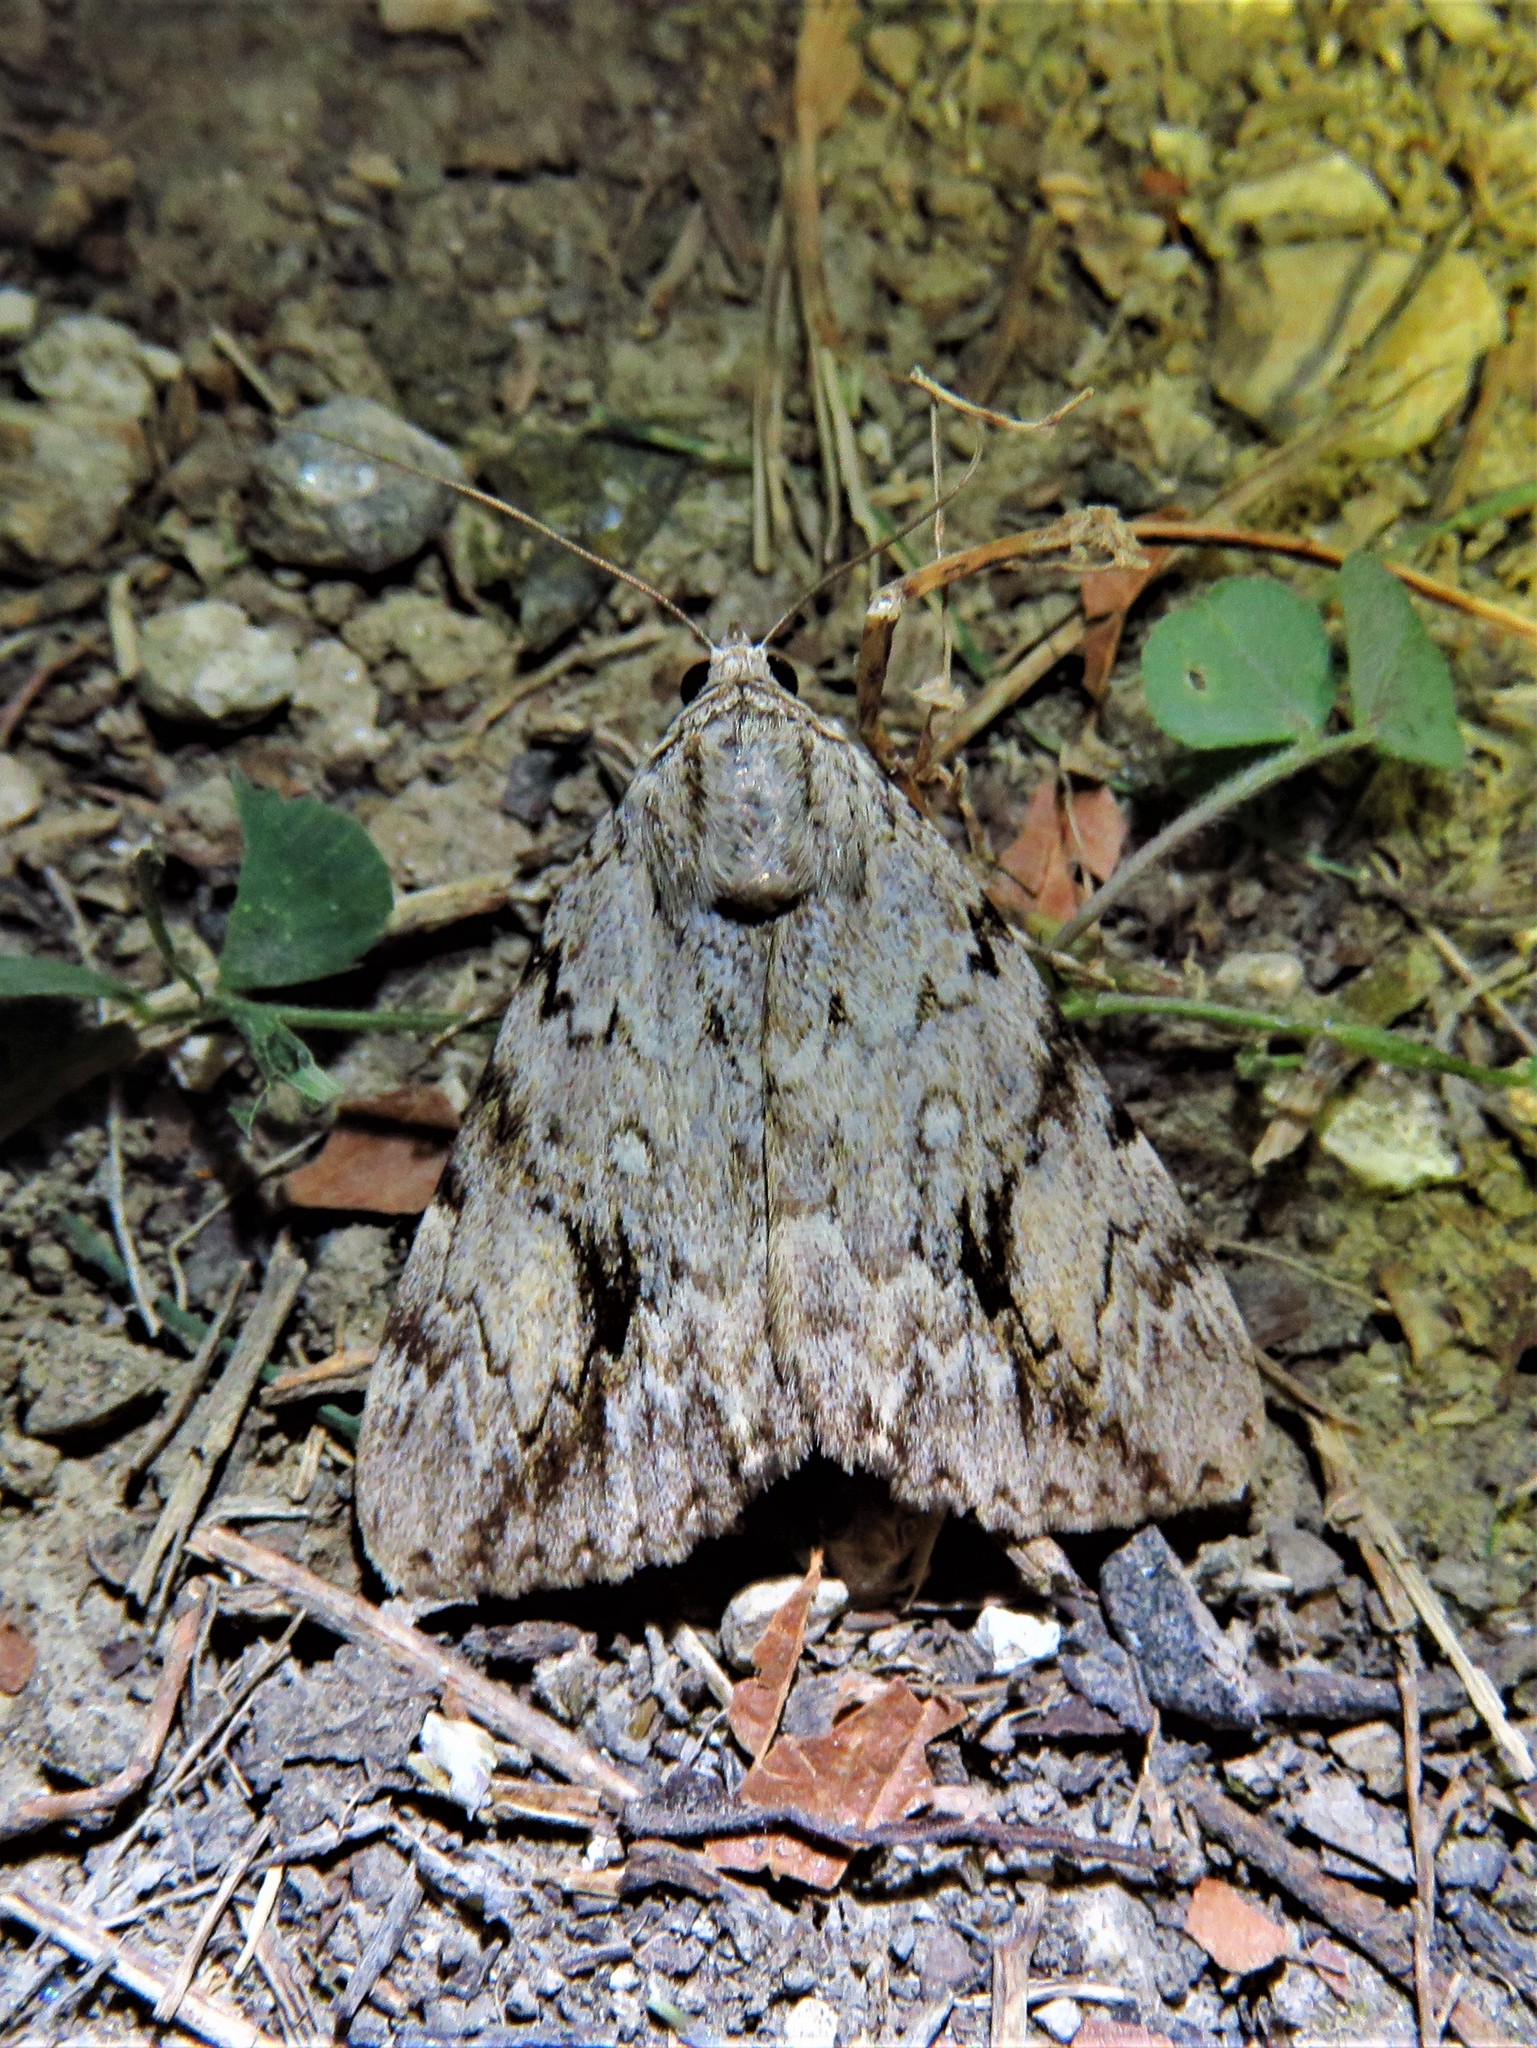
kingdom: Animalia
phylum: Arthropoda
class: Insecta
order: Lepidoptera
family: Erebidae
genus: Catocala
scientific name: Catocala amica
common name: Girlfriend underwing
